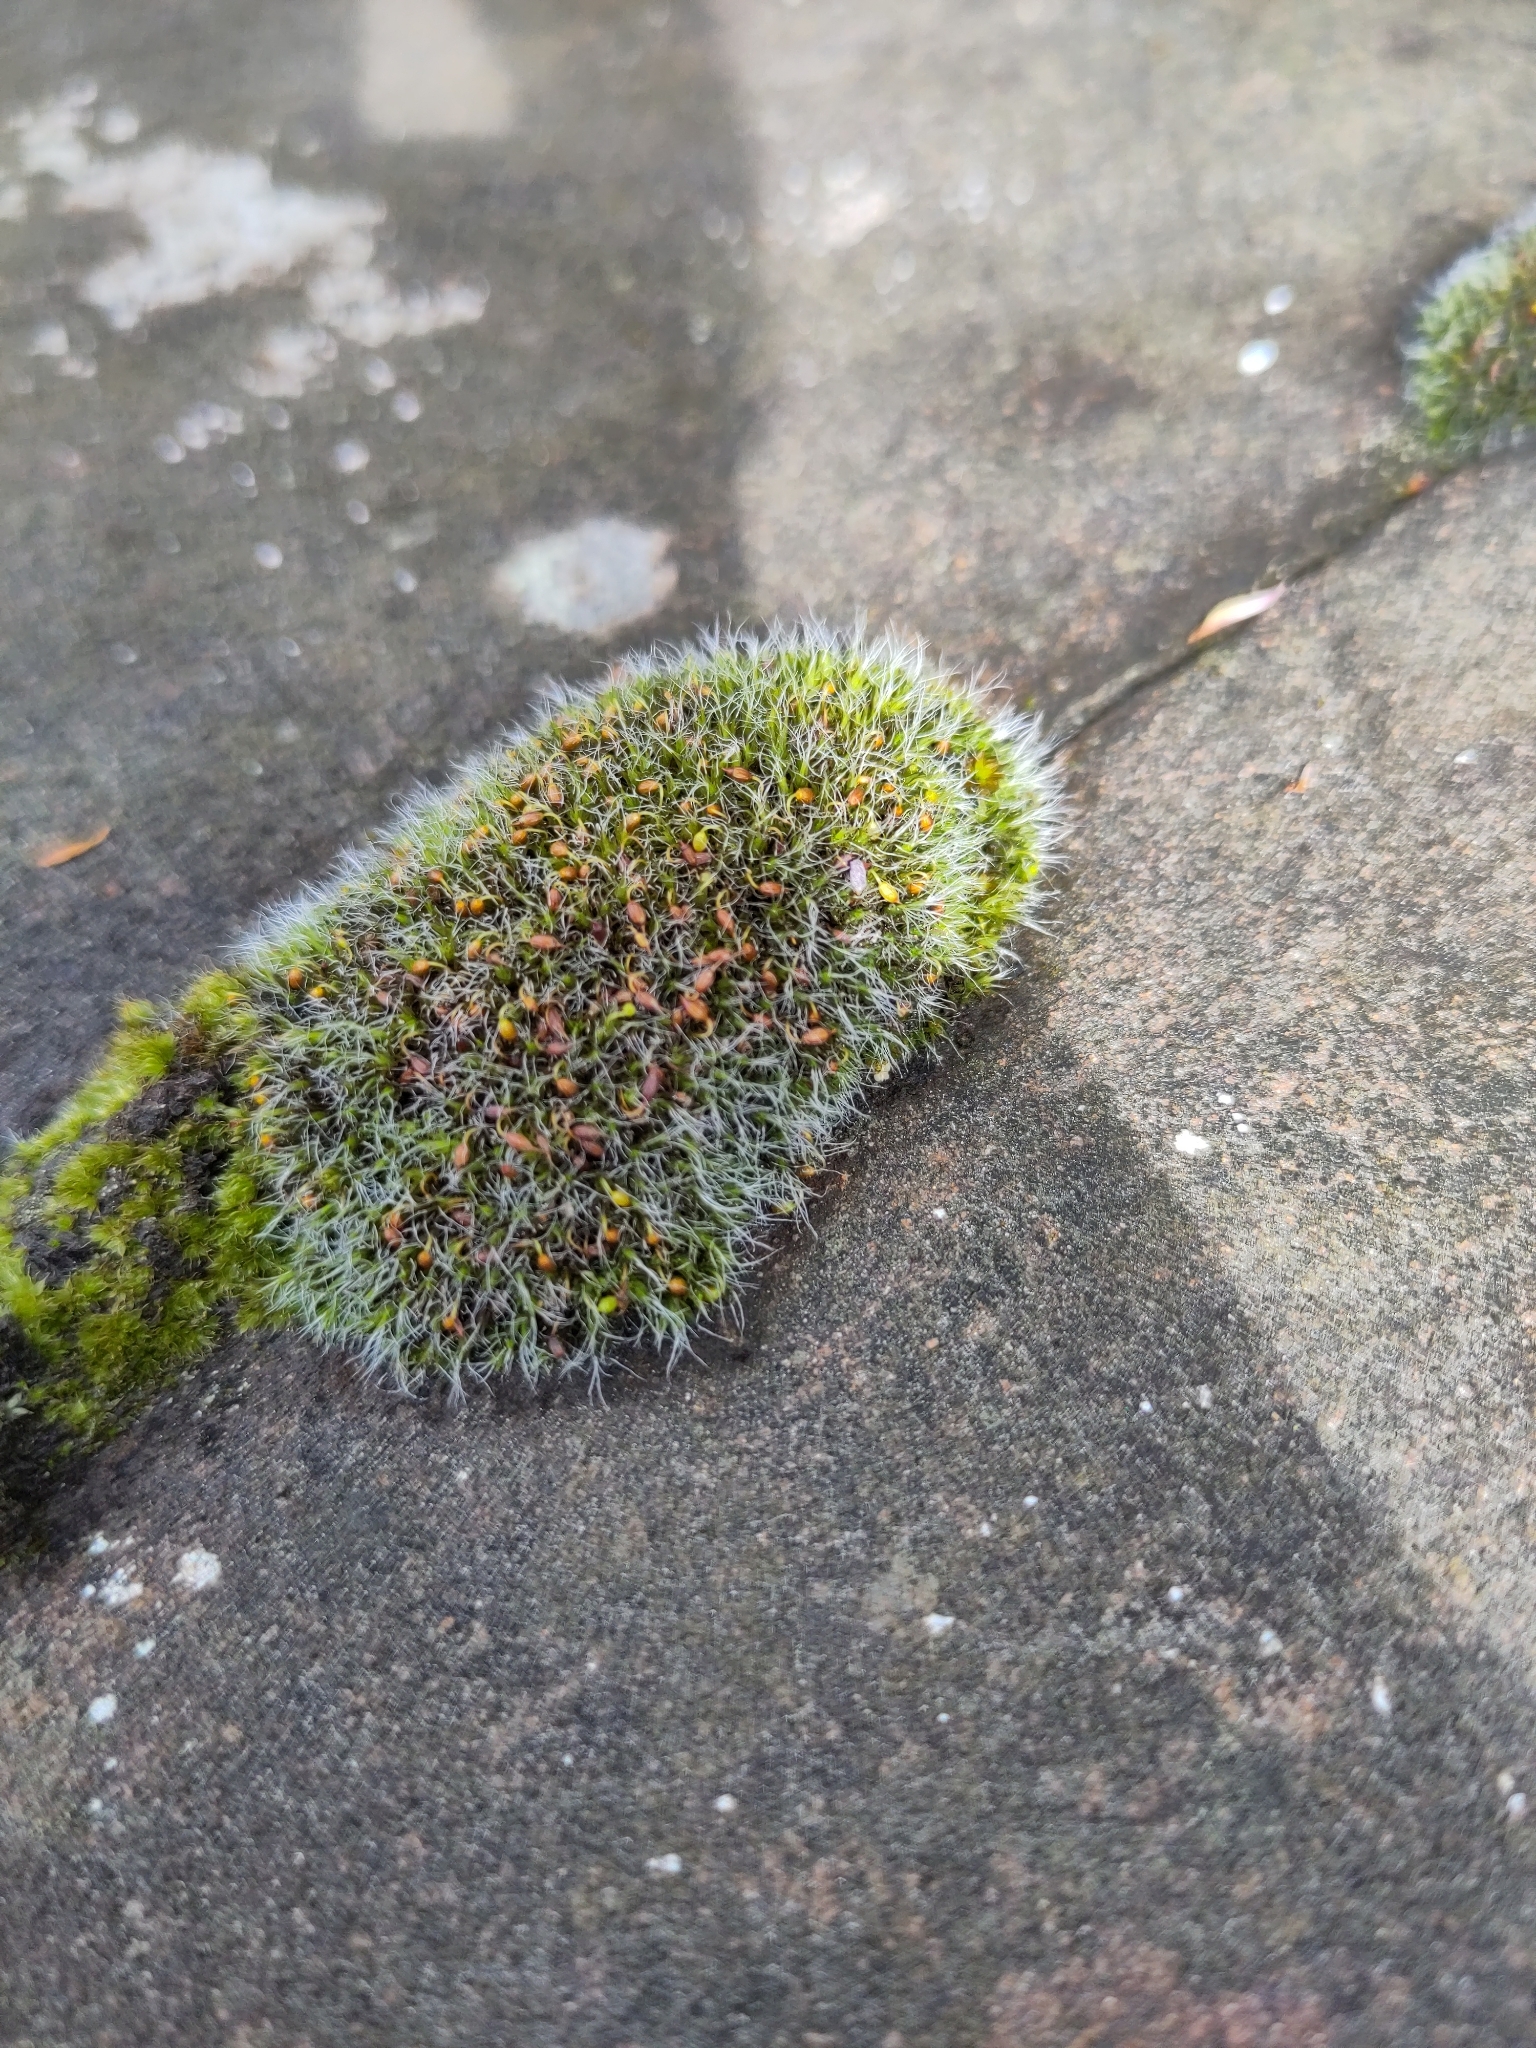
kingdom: Plantae
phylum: Bryophyta
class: Bryopsida
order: Grimmiales
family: Grimmiaceae
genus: Grimmia
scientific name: Grimmia pulvinata
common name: Grey-cushioned grimmia
